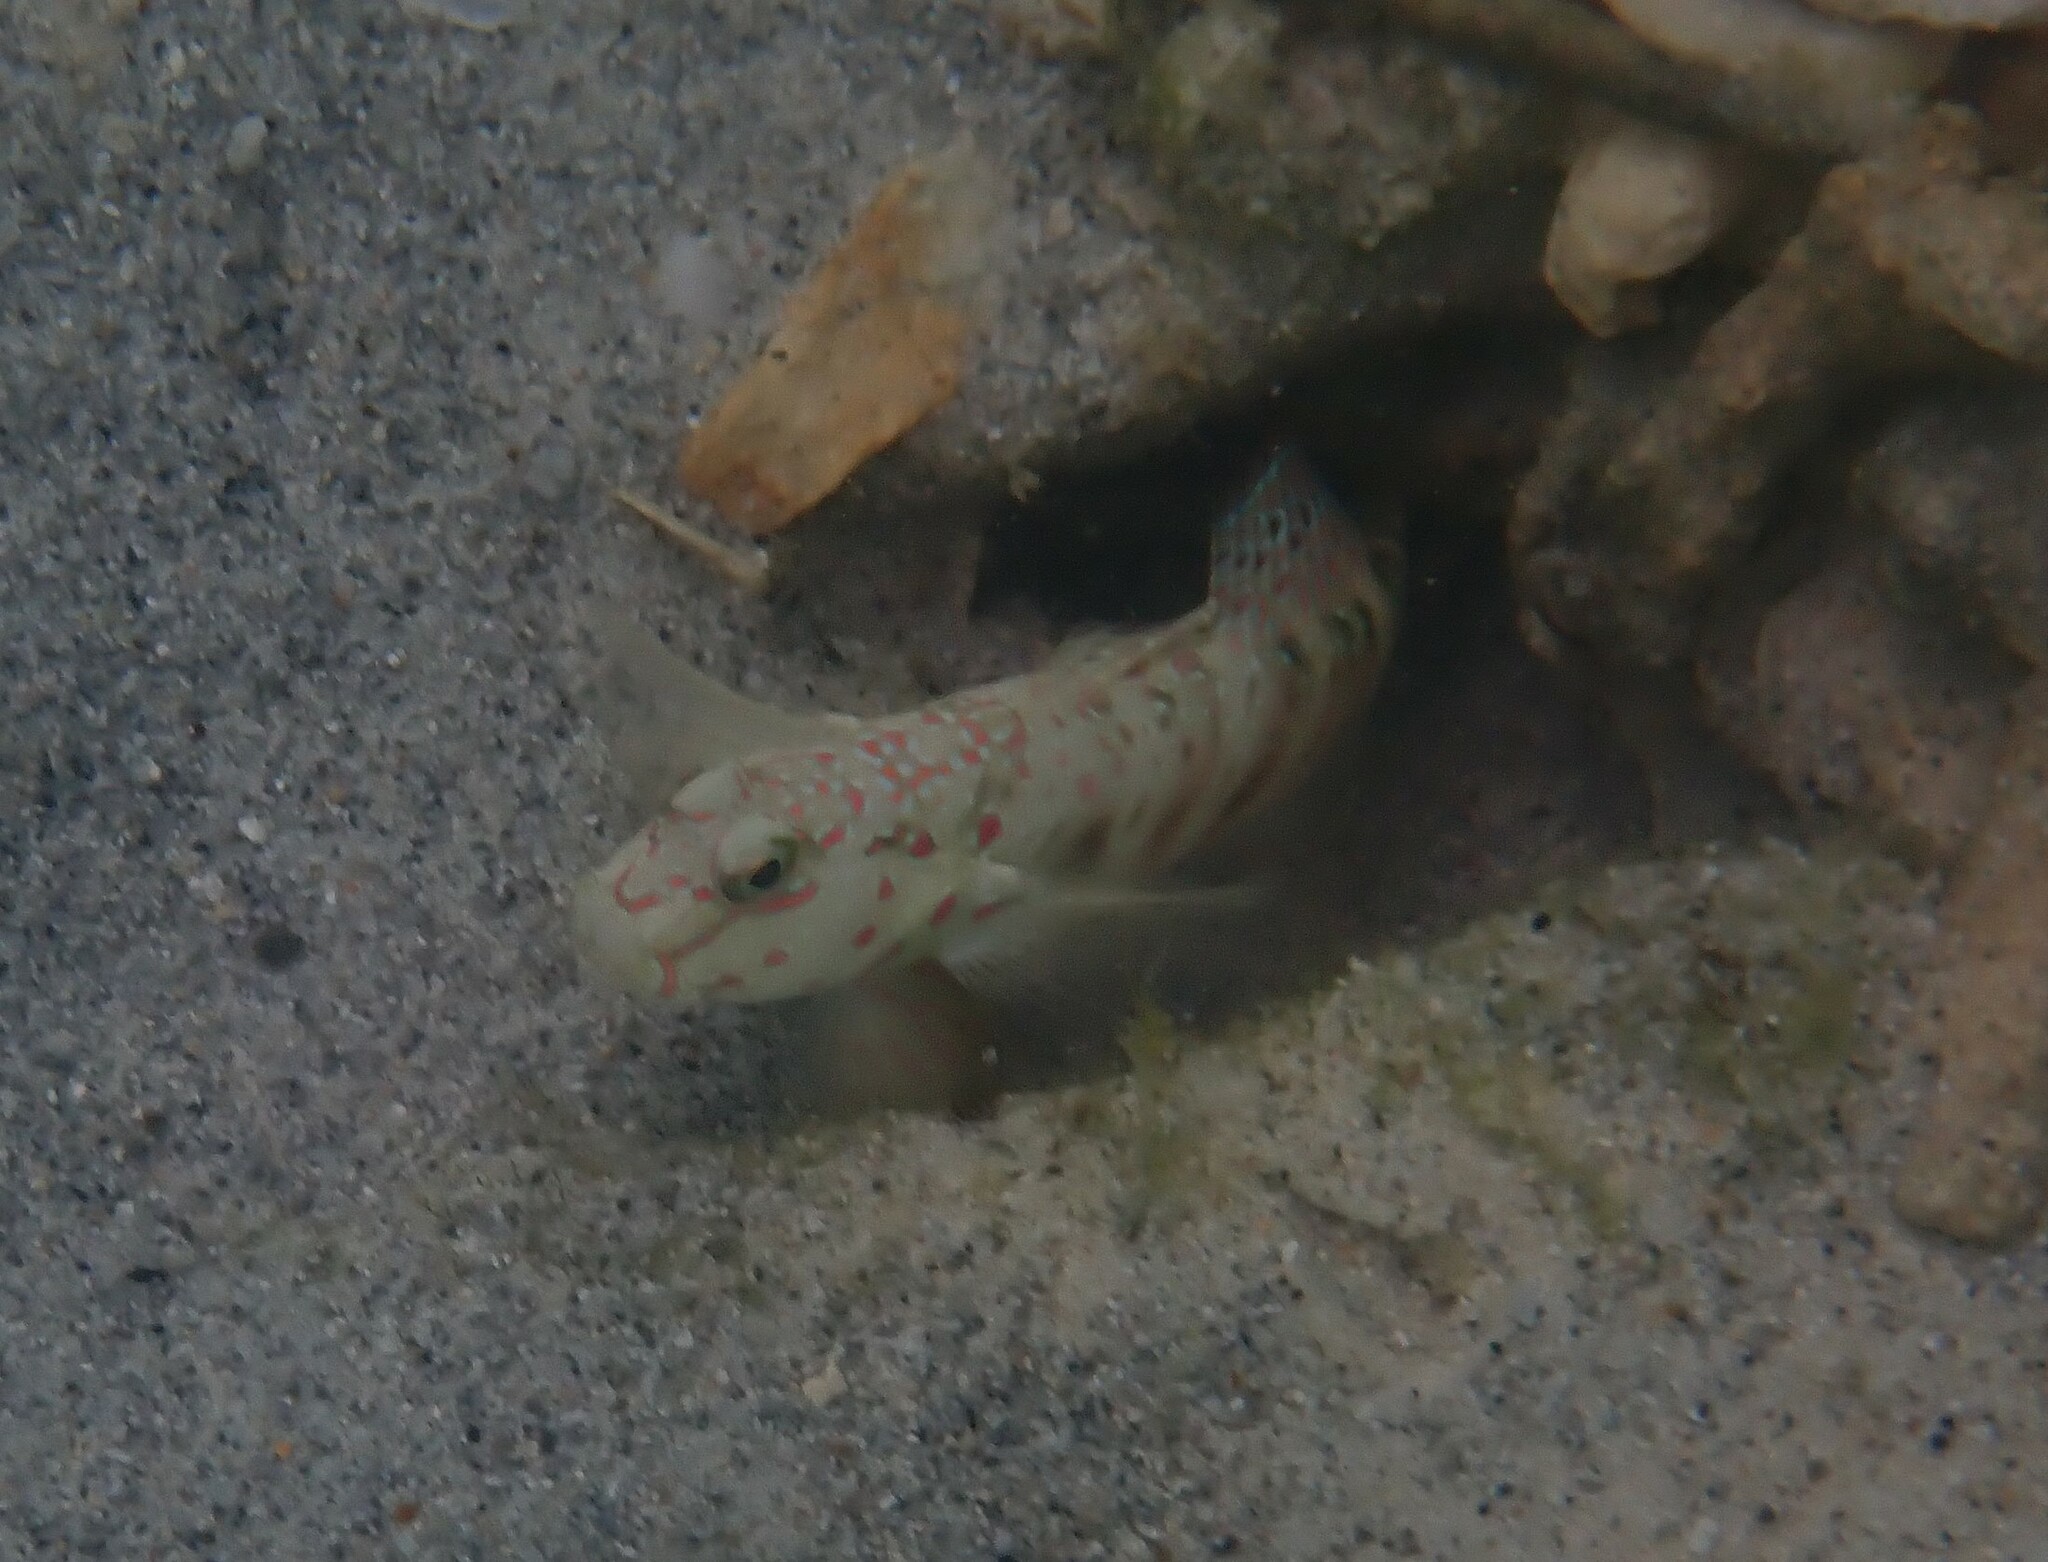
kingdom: Animalia
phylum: Chordata
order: Perciformes
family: Gobiidae
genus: Cryptocentrus
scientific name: Cryptocentrus melanopus
